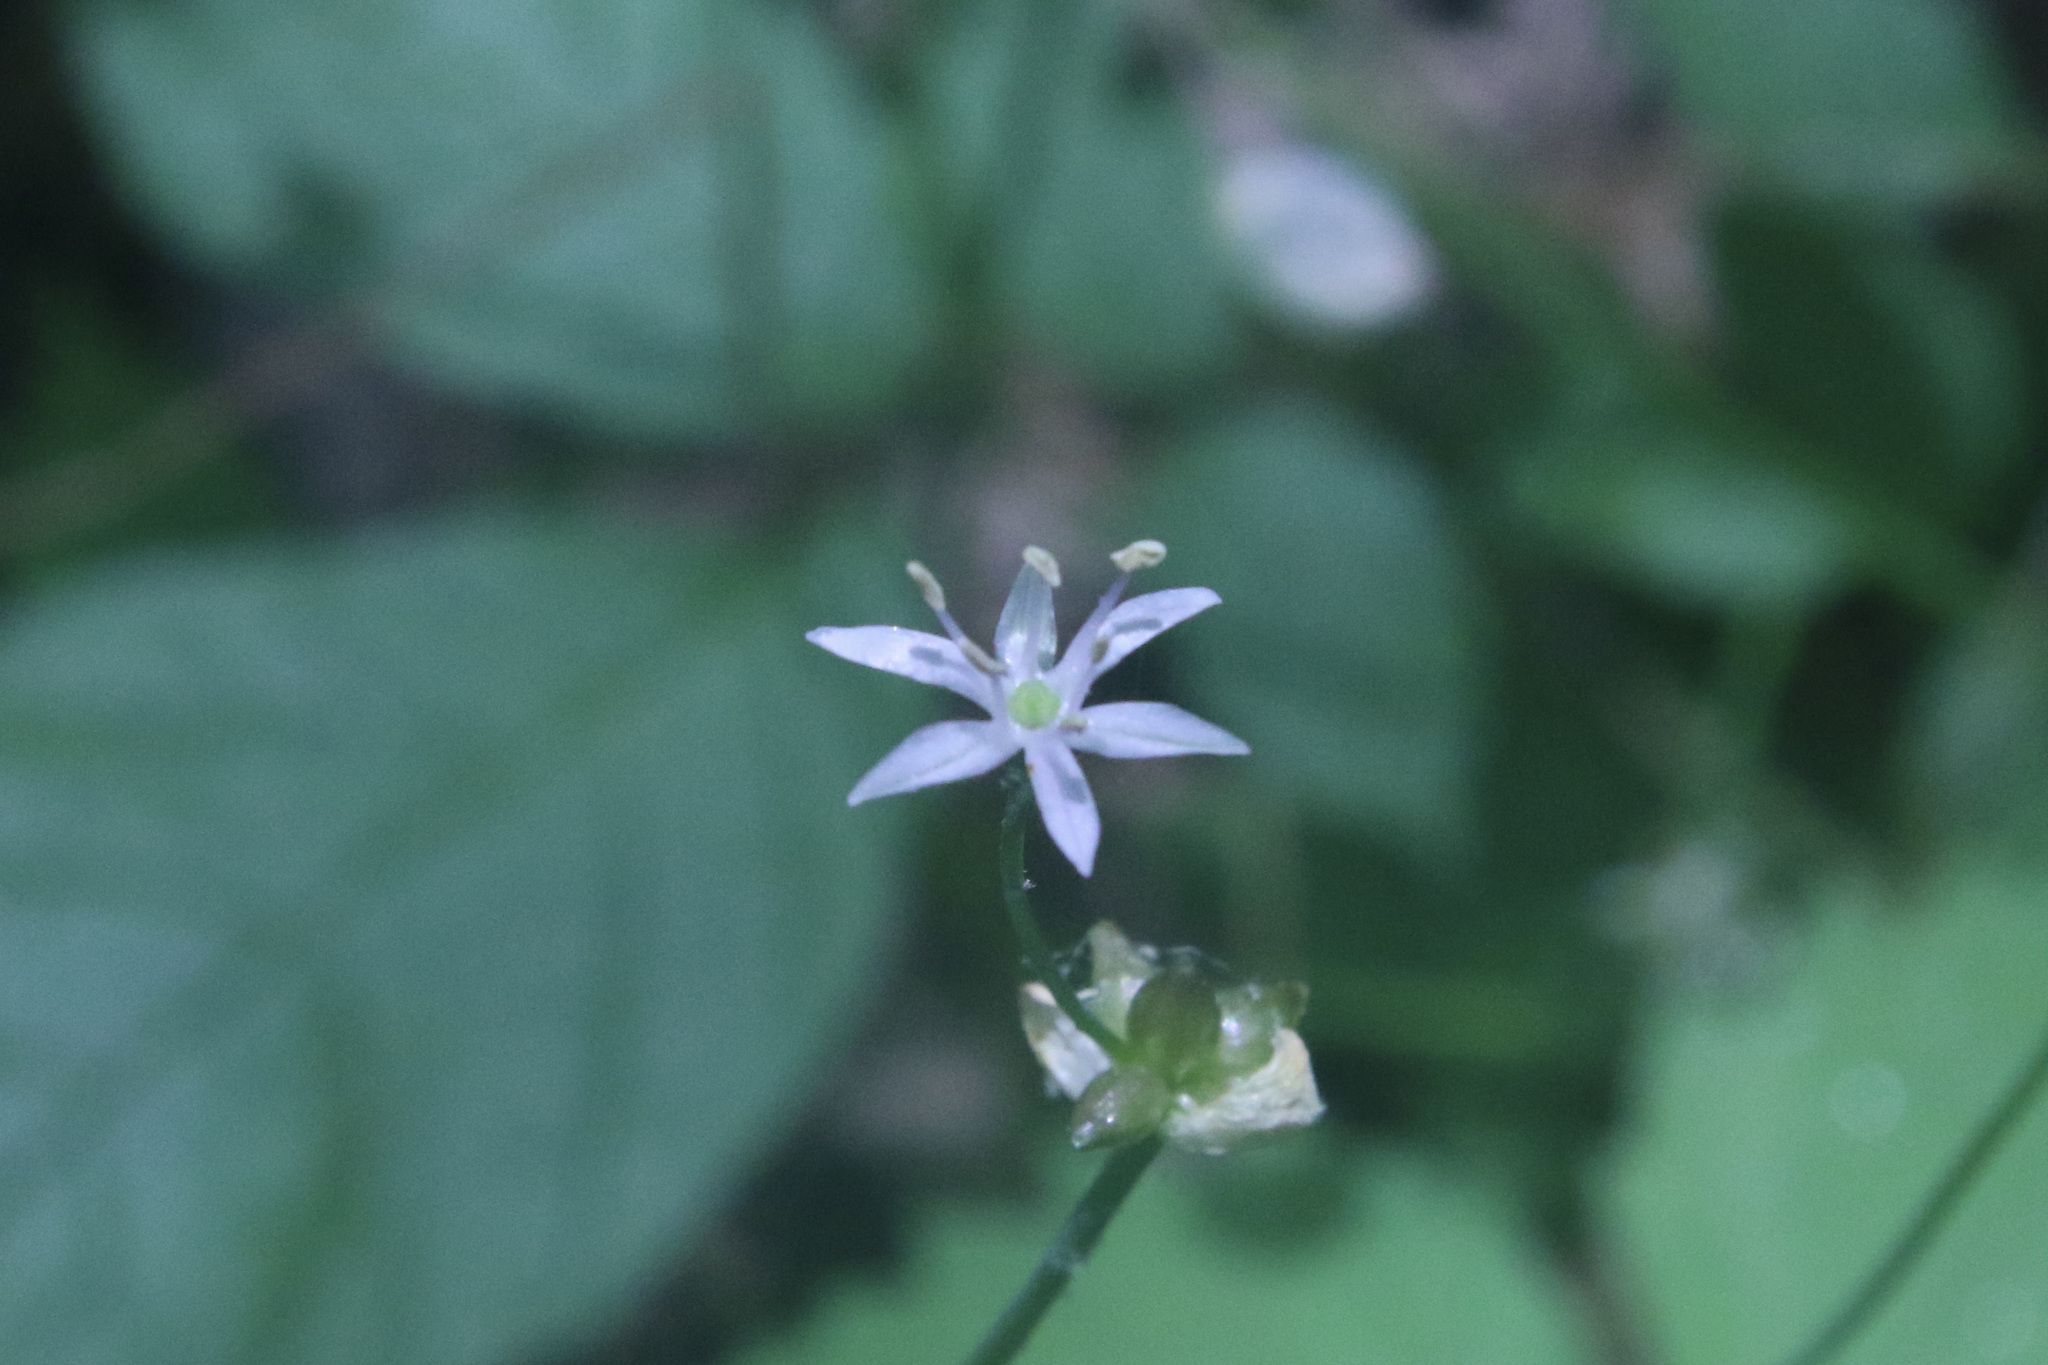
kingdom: Plantae
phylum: Tracheophyta
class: Liliopsida
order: Asparagales
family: Amaryllidaceae
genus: Allium
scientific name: Allium canadense
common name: Meadow garlic
